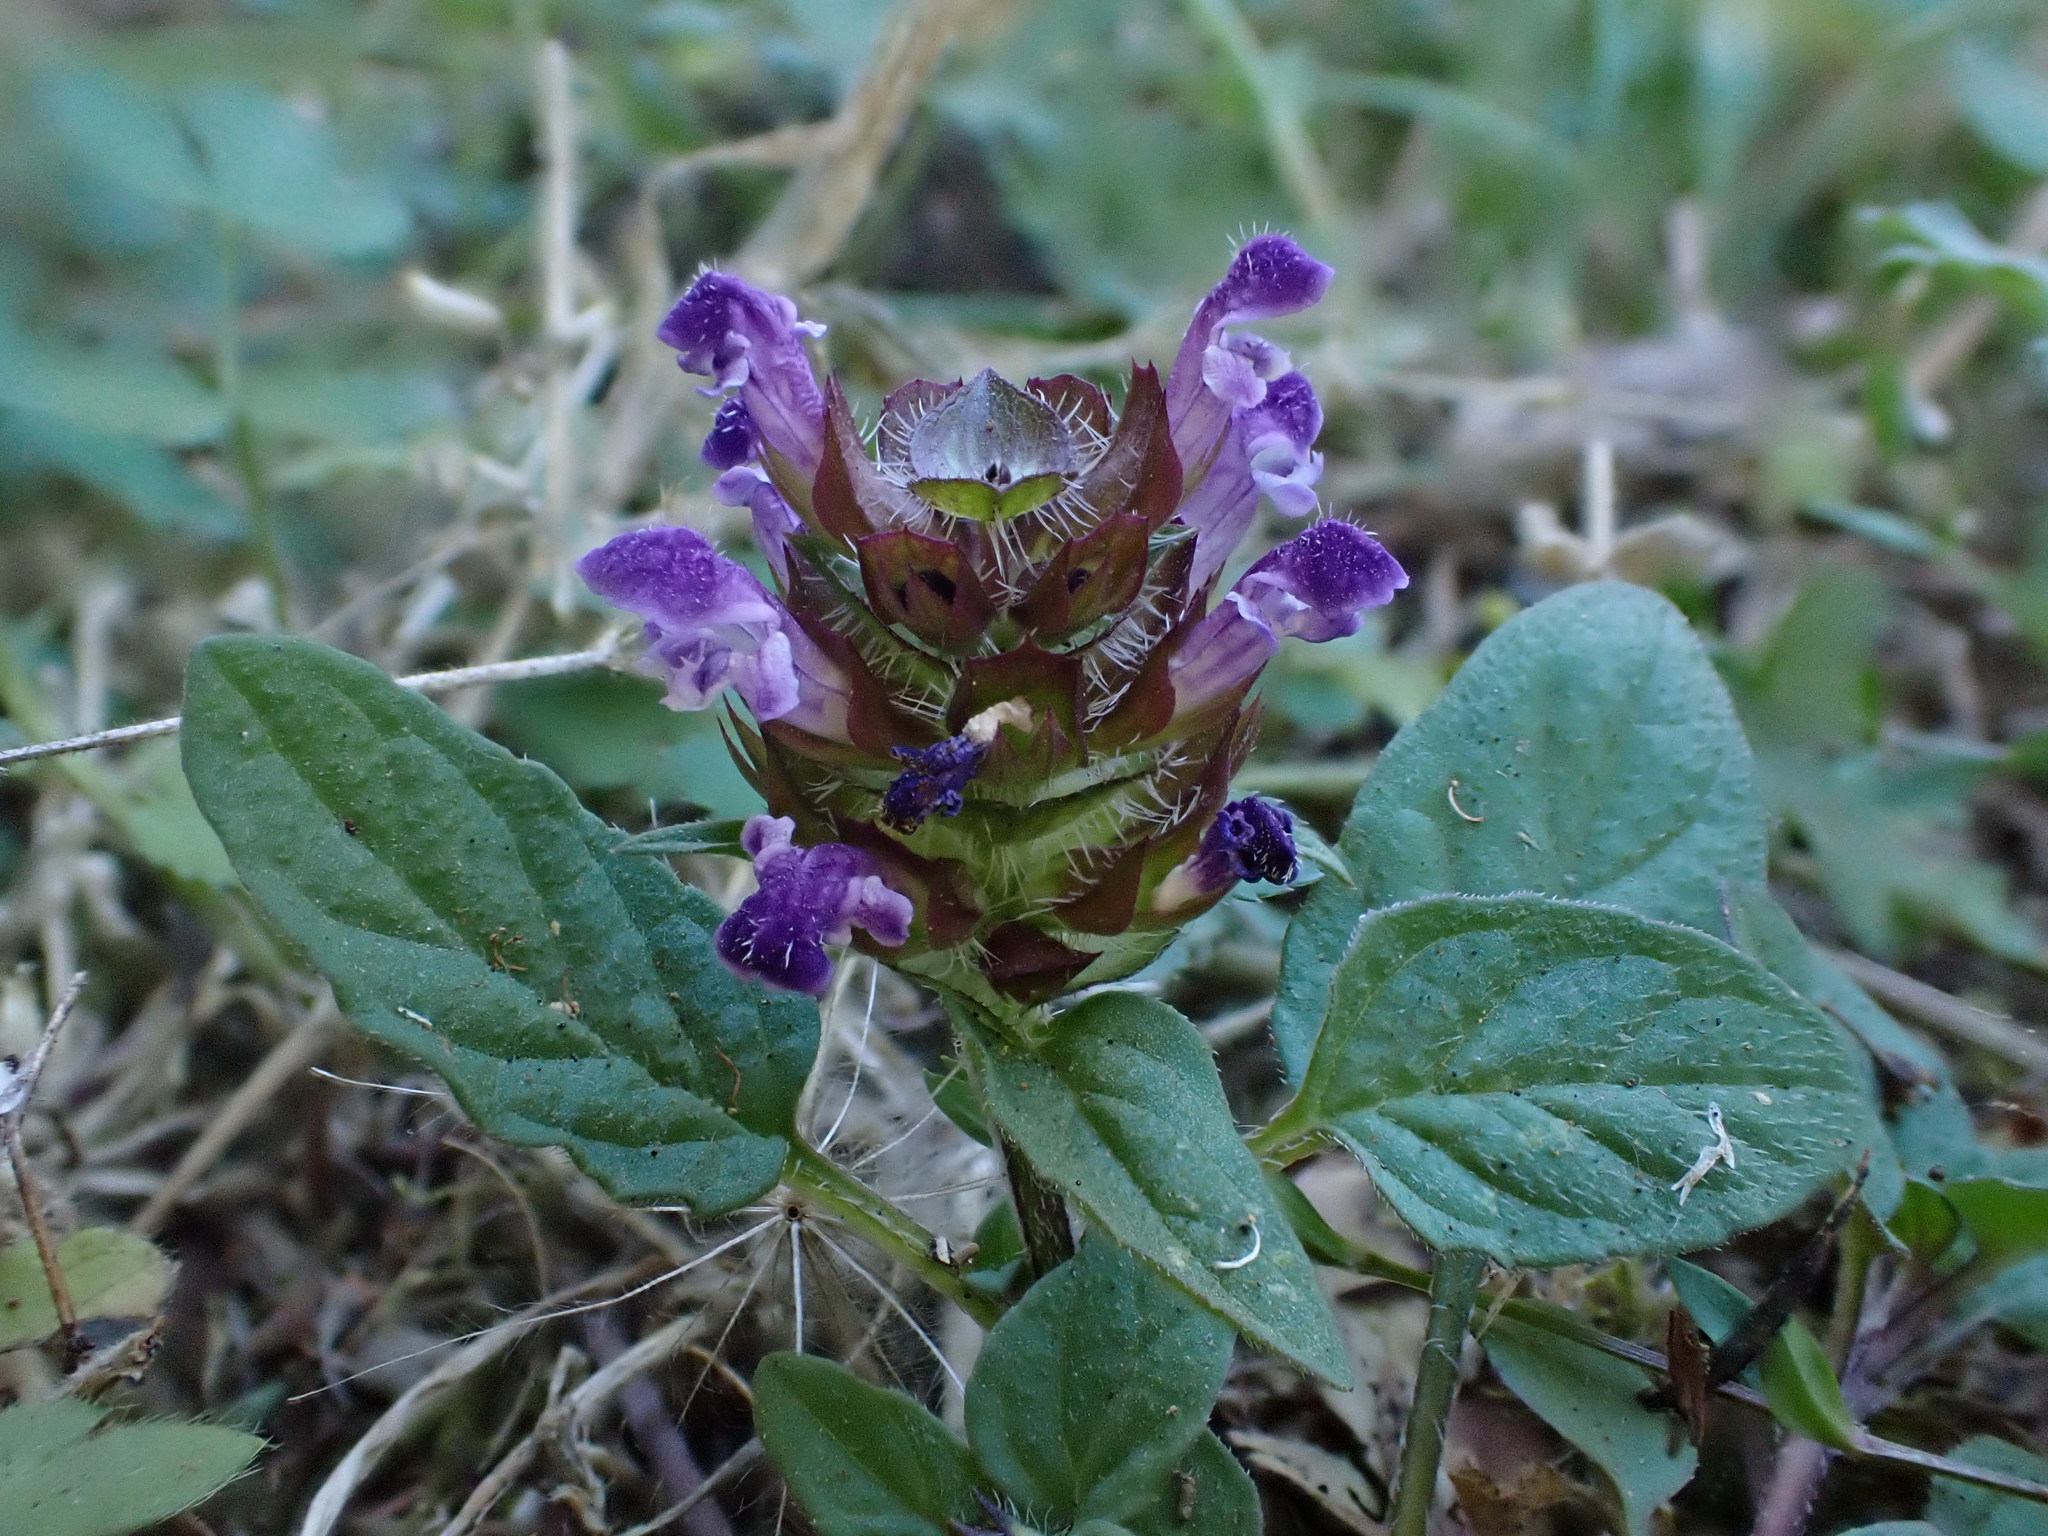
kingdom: Plantae
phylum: Tracheophyta
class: Magnoliopsida
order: Lamiales
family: Lamiaceae
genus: Prunella
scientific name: Prunella vulgaris
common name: Heal-all
